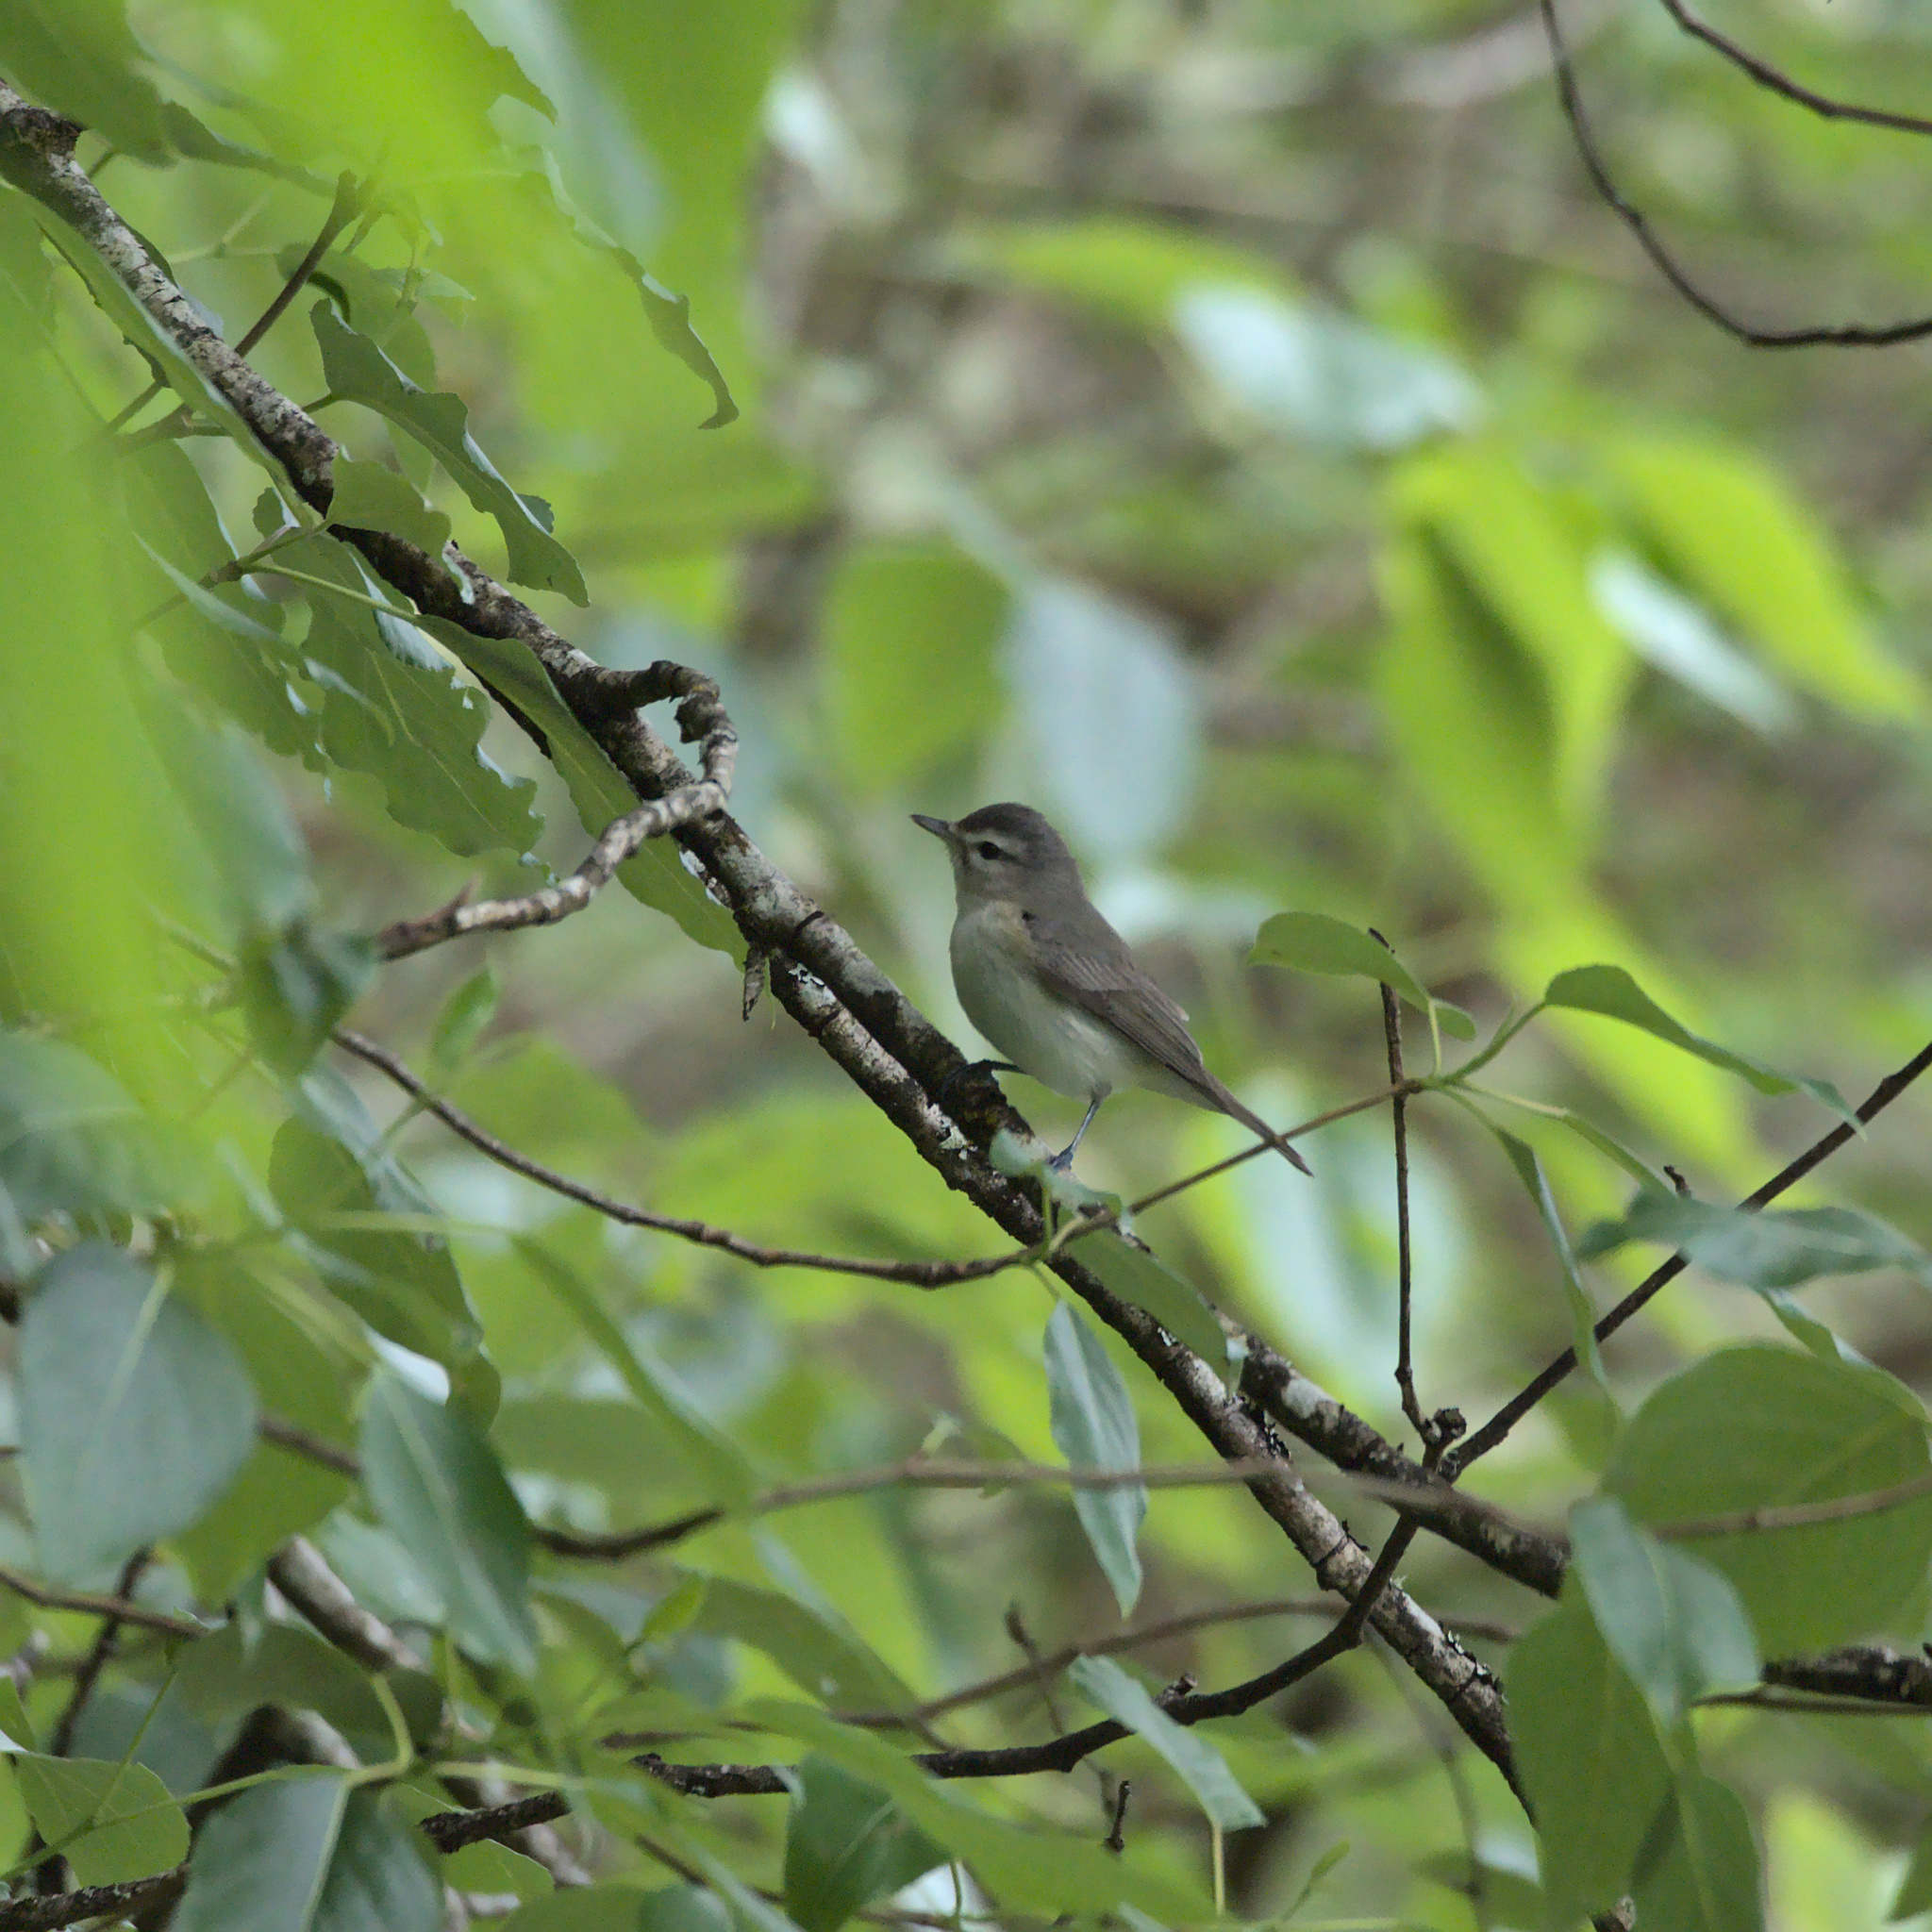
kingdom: Animalia
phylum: Chordata
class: Aves
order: Passeriformes
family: Vireonidae
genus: Vireo
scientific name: Vireo gilvus
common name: Warbling vireo
